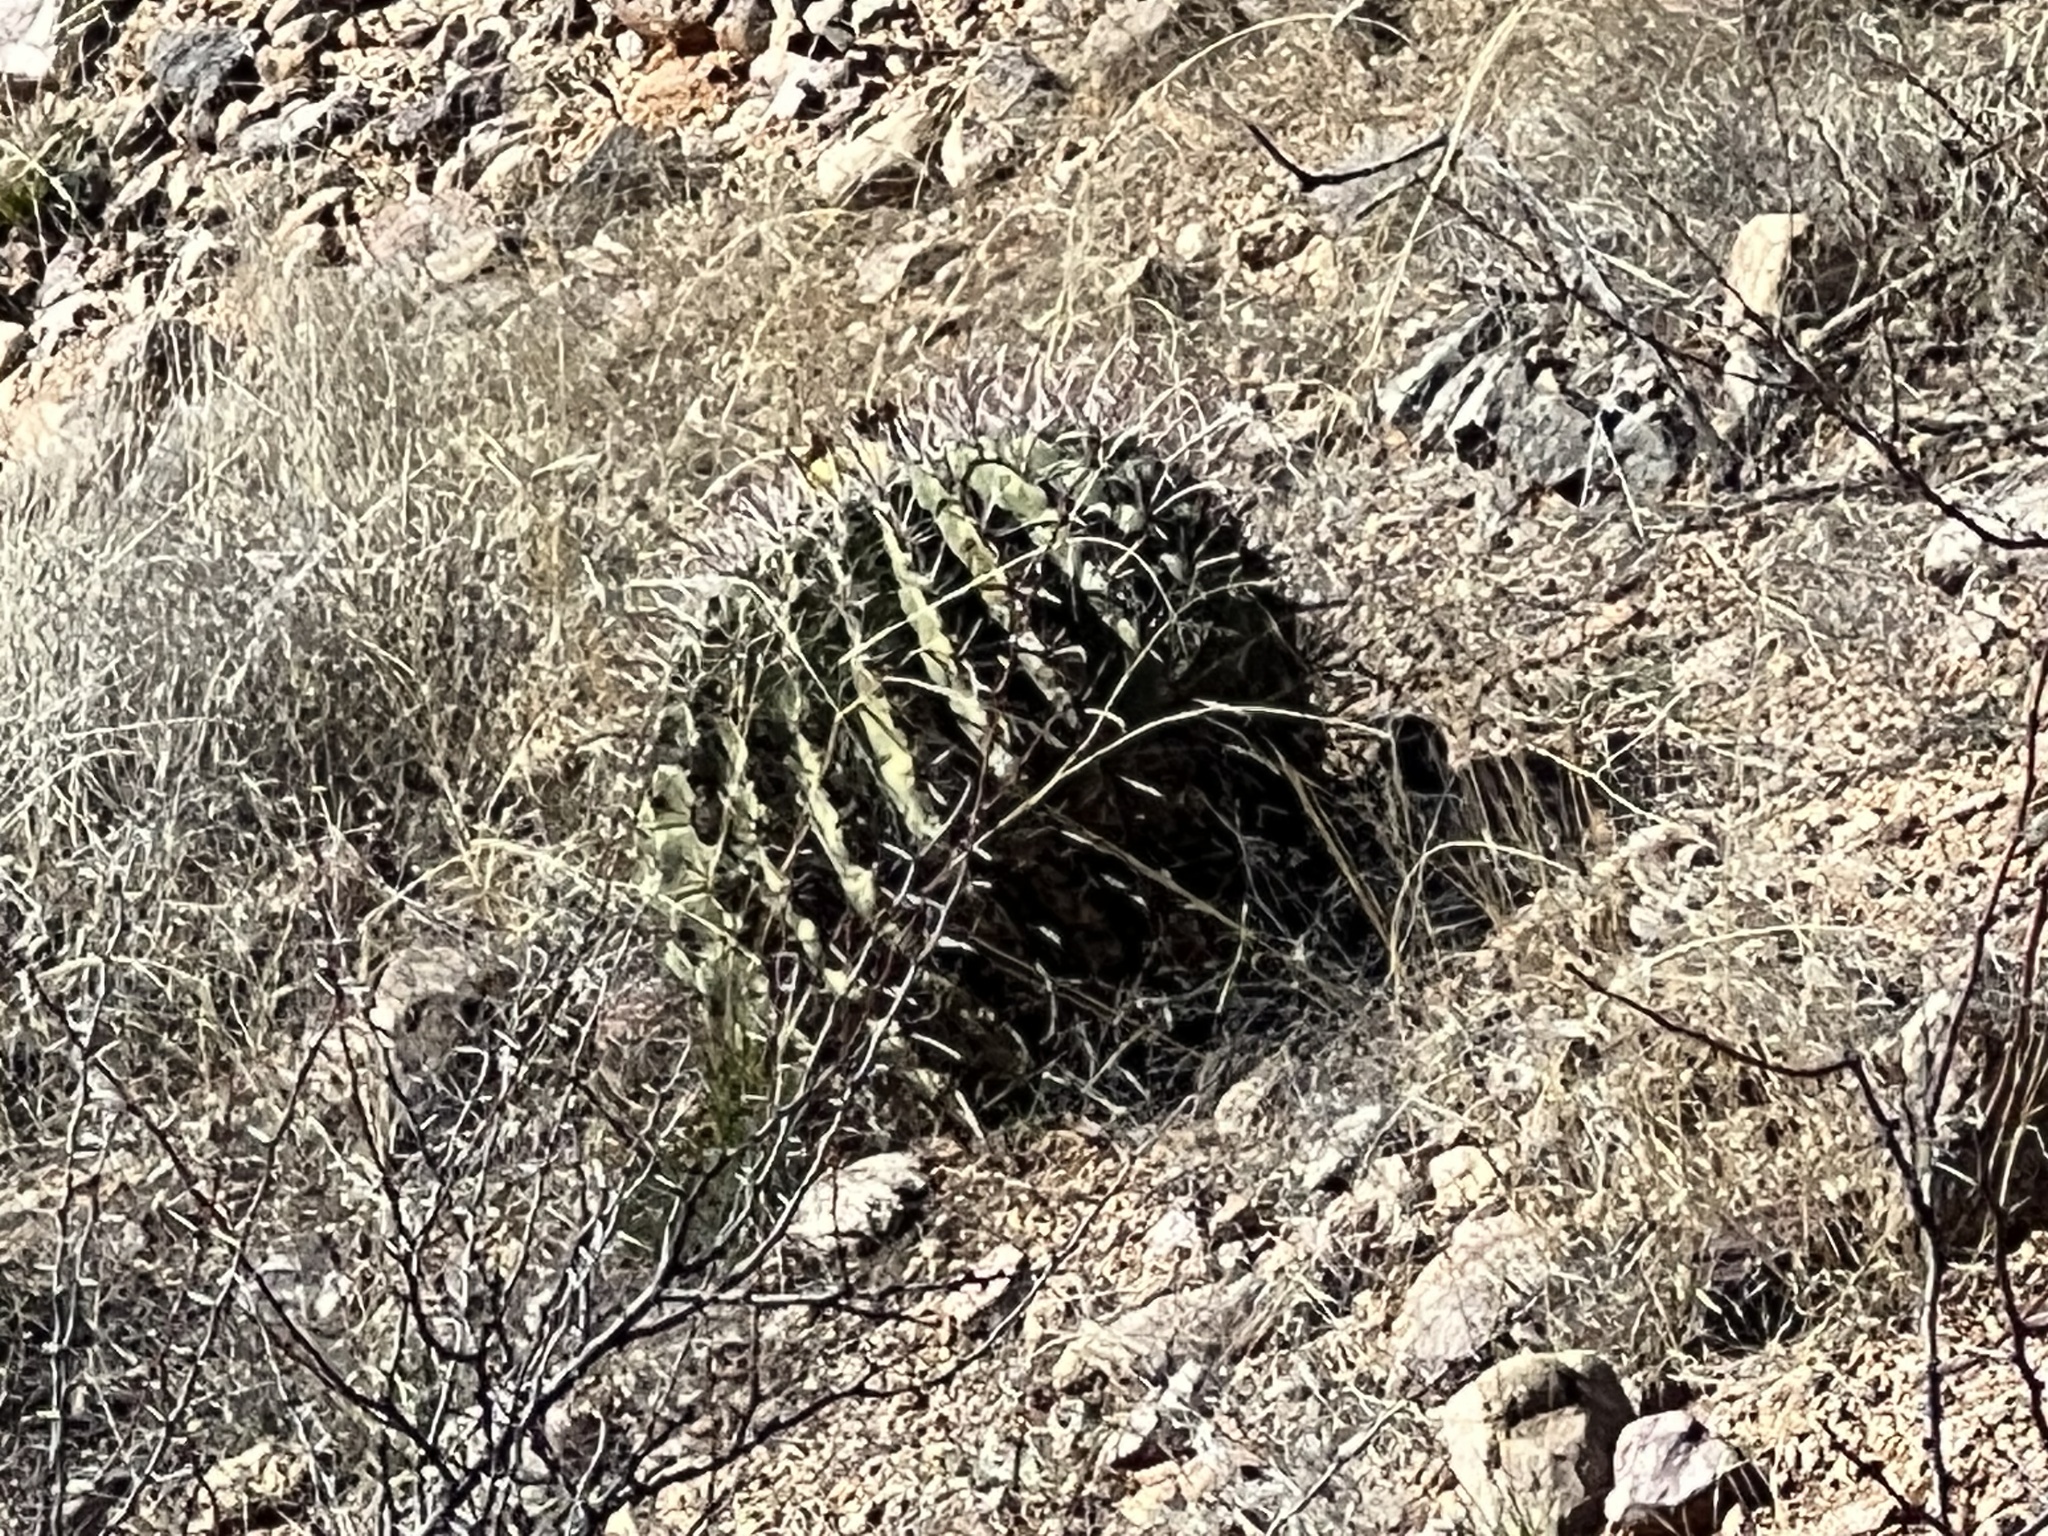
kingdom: Plantae
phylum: Tracheophyta
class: Magnoliopsida
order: Caryophyllales
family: Cactaceae
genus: Ferocactus
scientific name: Ferocactus wislizeni
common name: Candy barrel cactus
